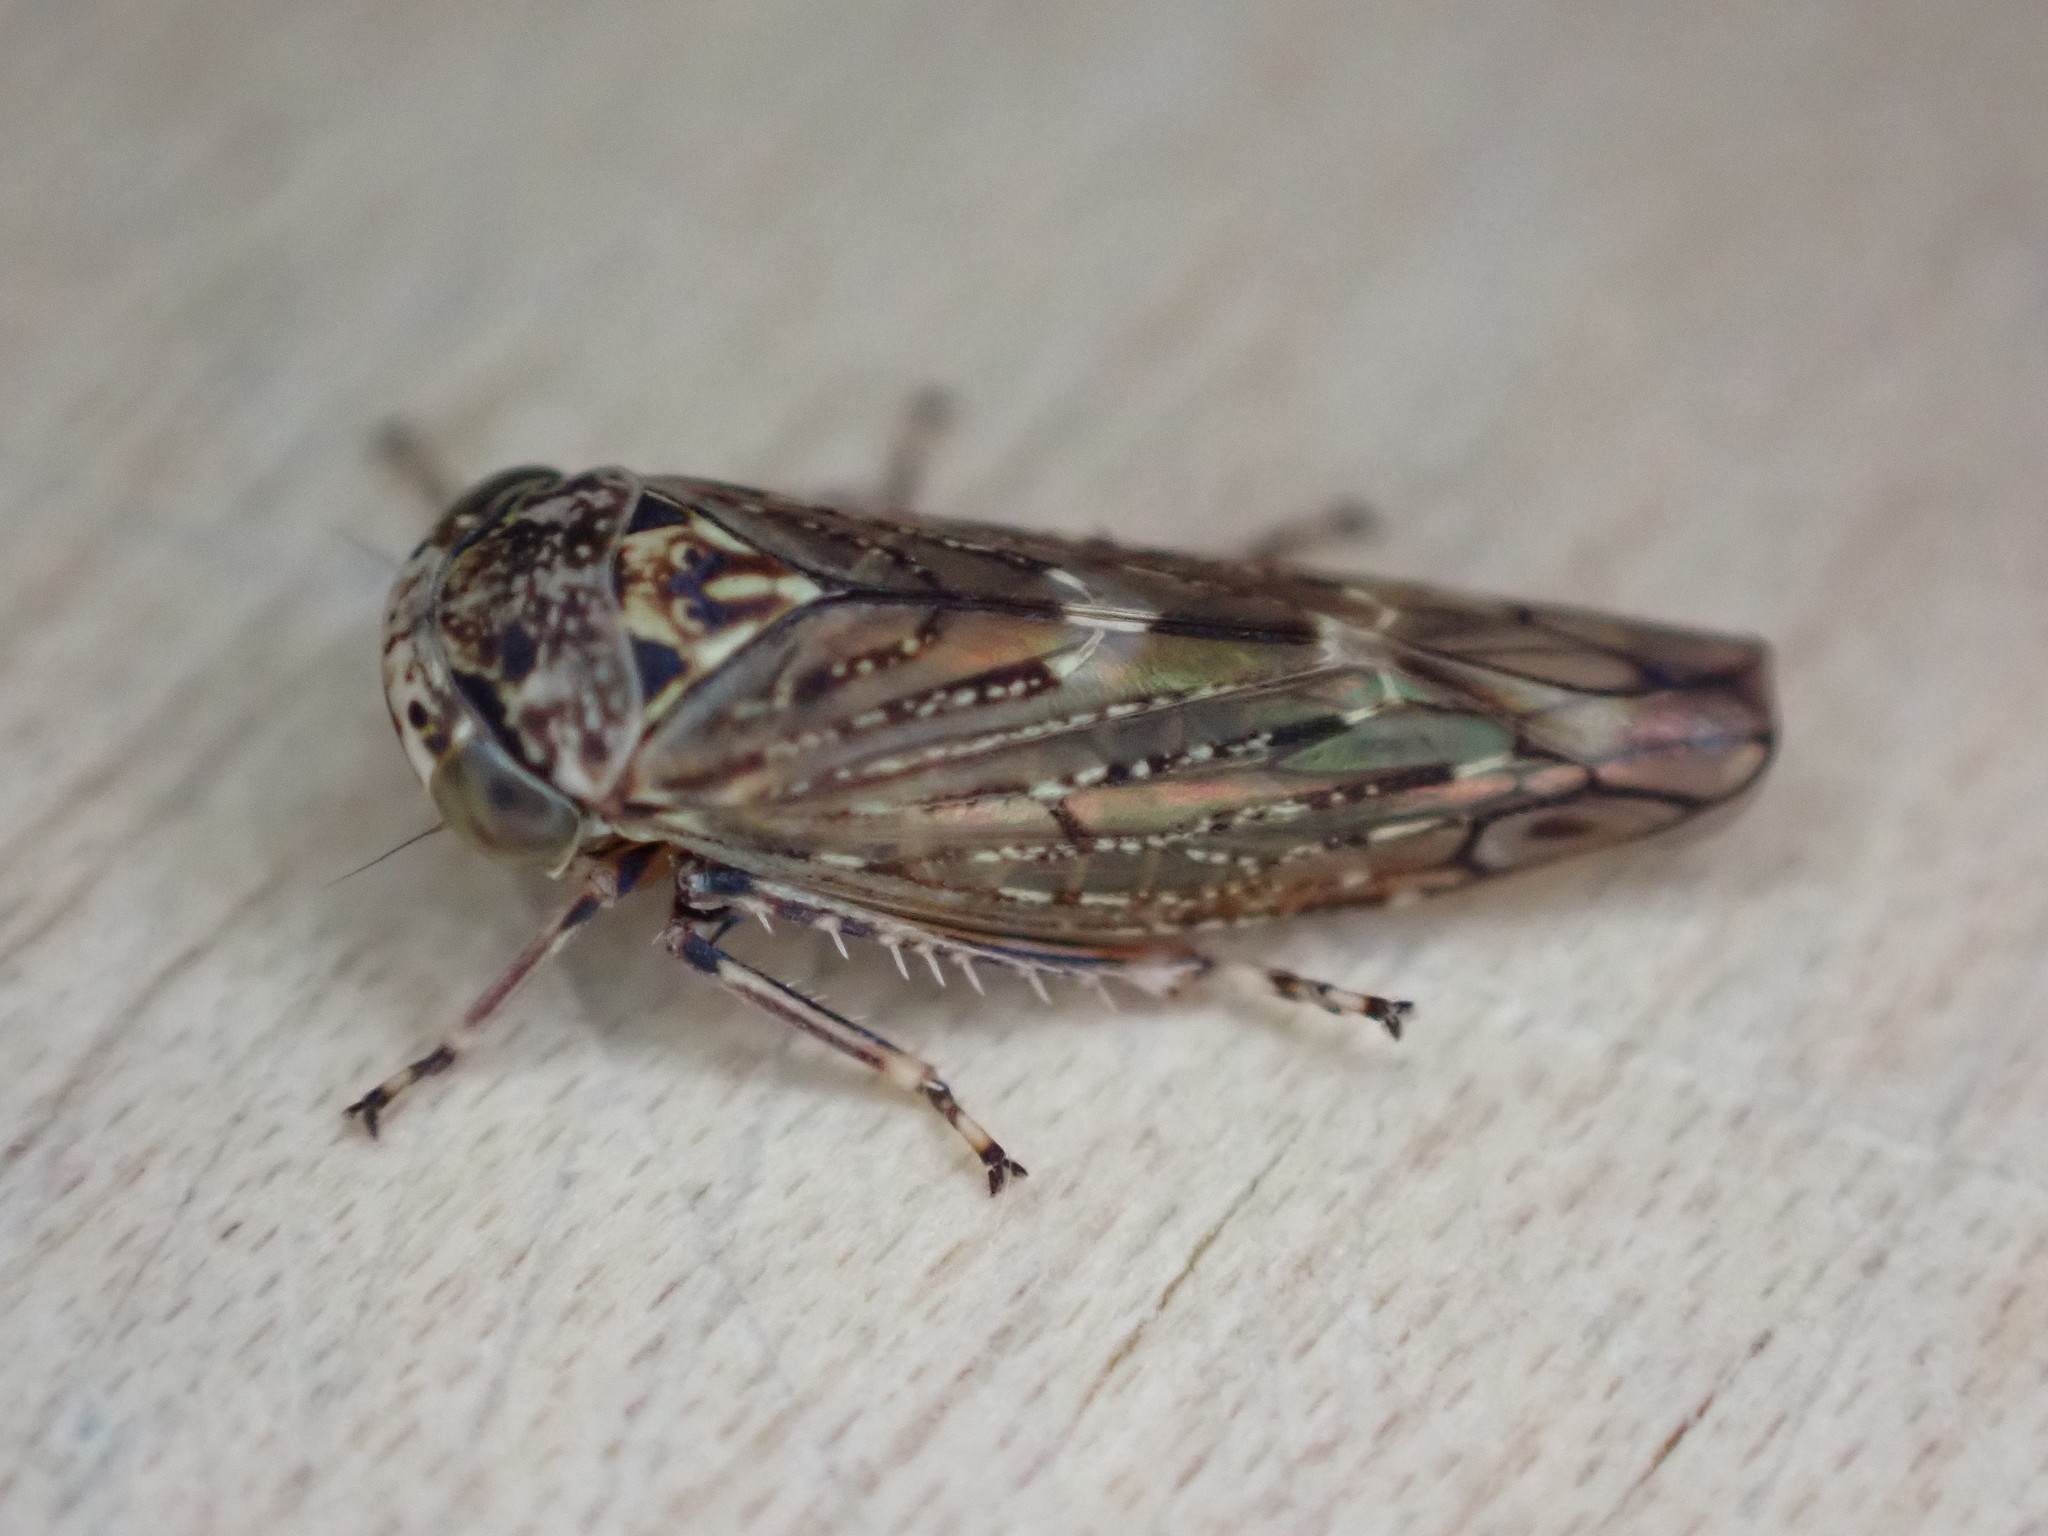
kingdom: Animalia
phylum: Arthropoda
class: Insecta
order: Hemiptera
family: Cicadellidae
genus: Acericerus
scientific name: Acericerus heydenii
